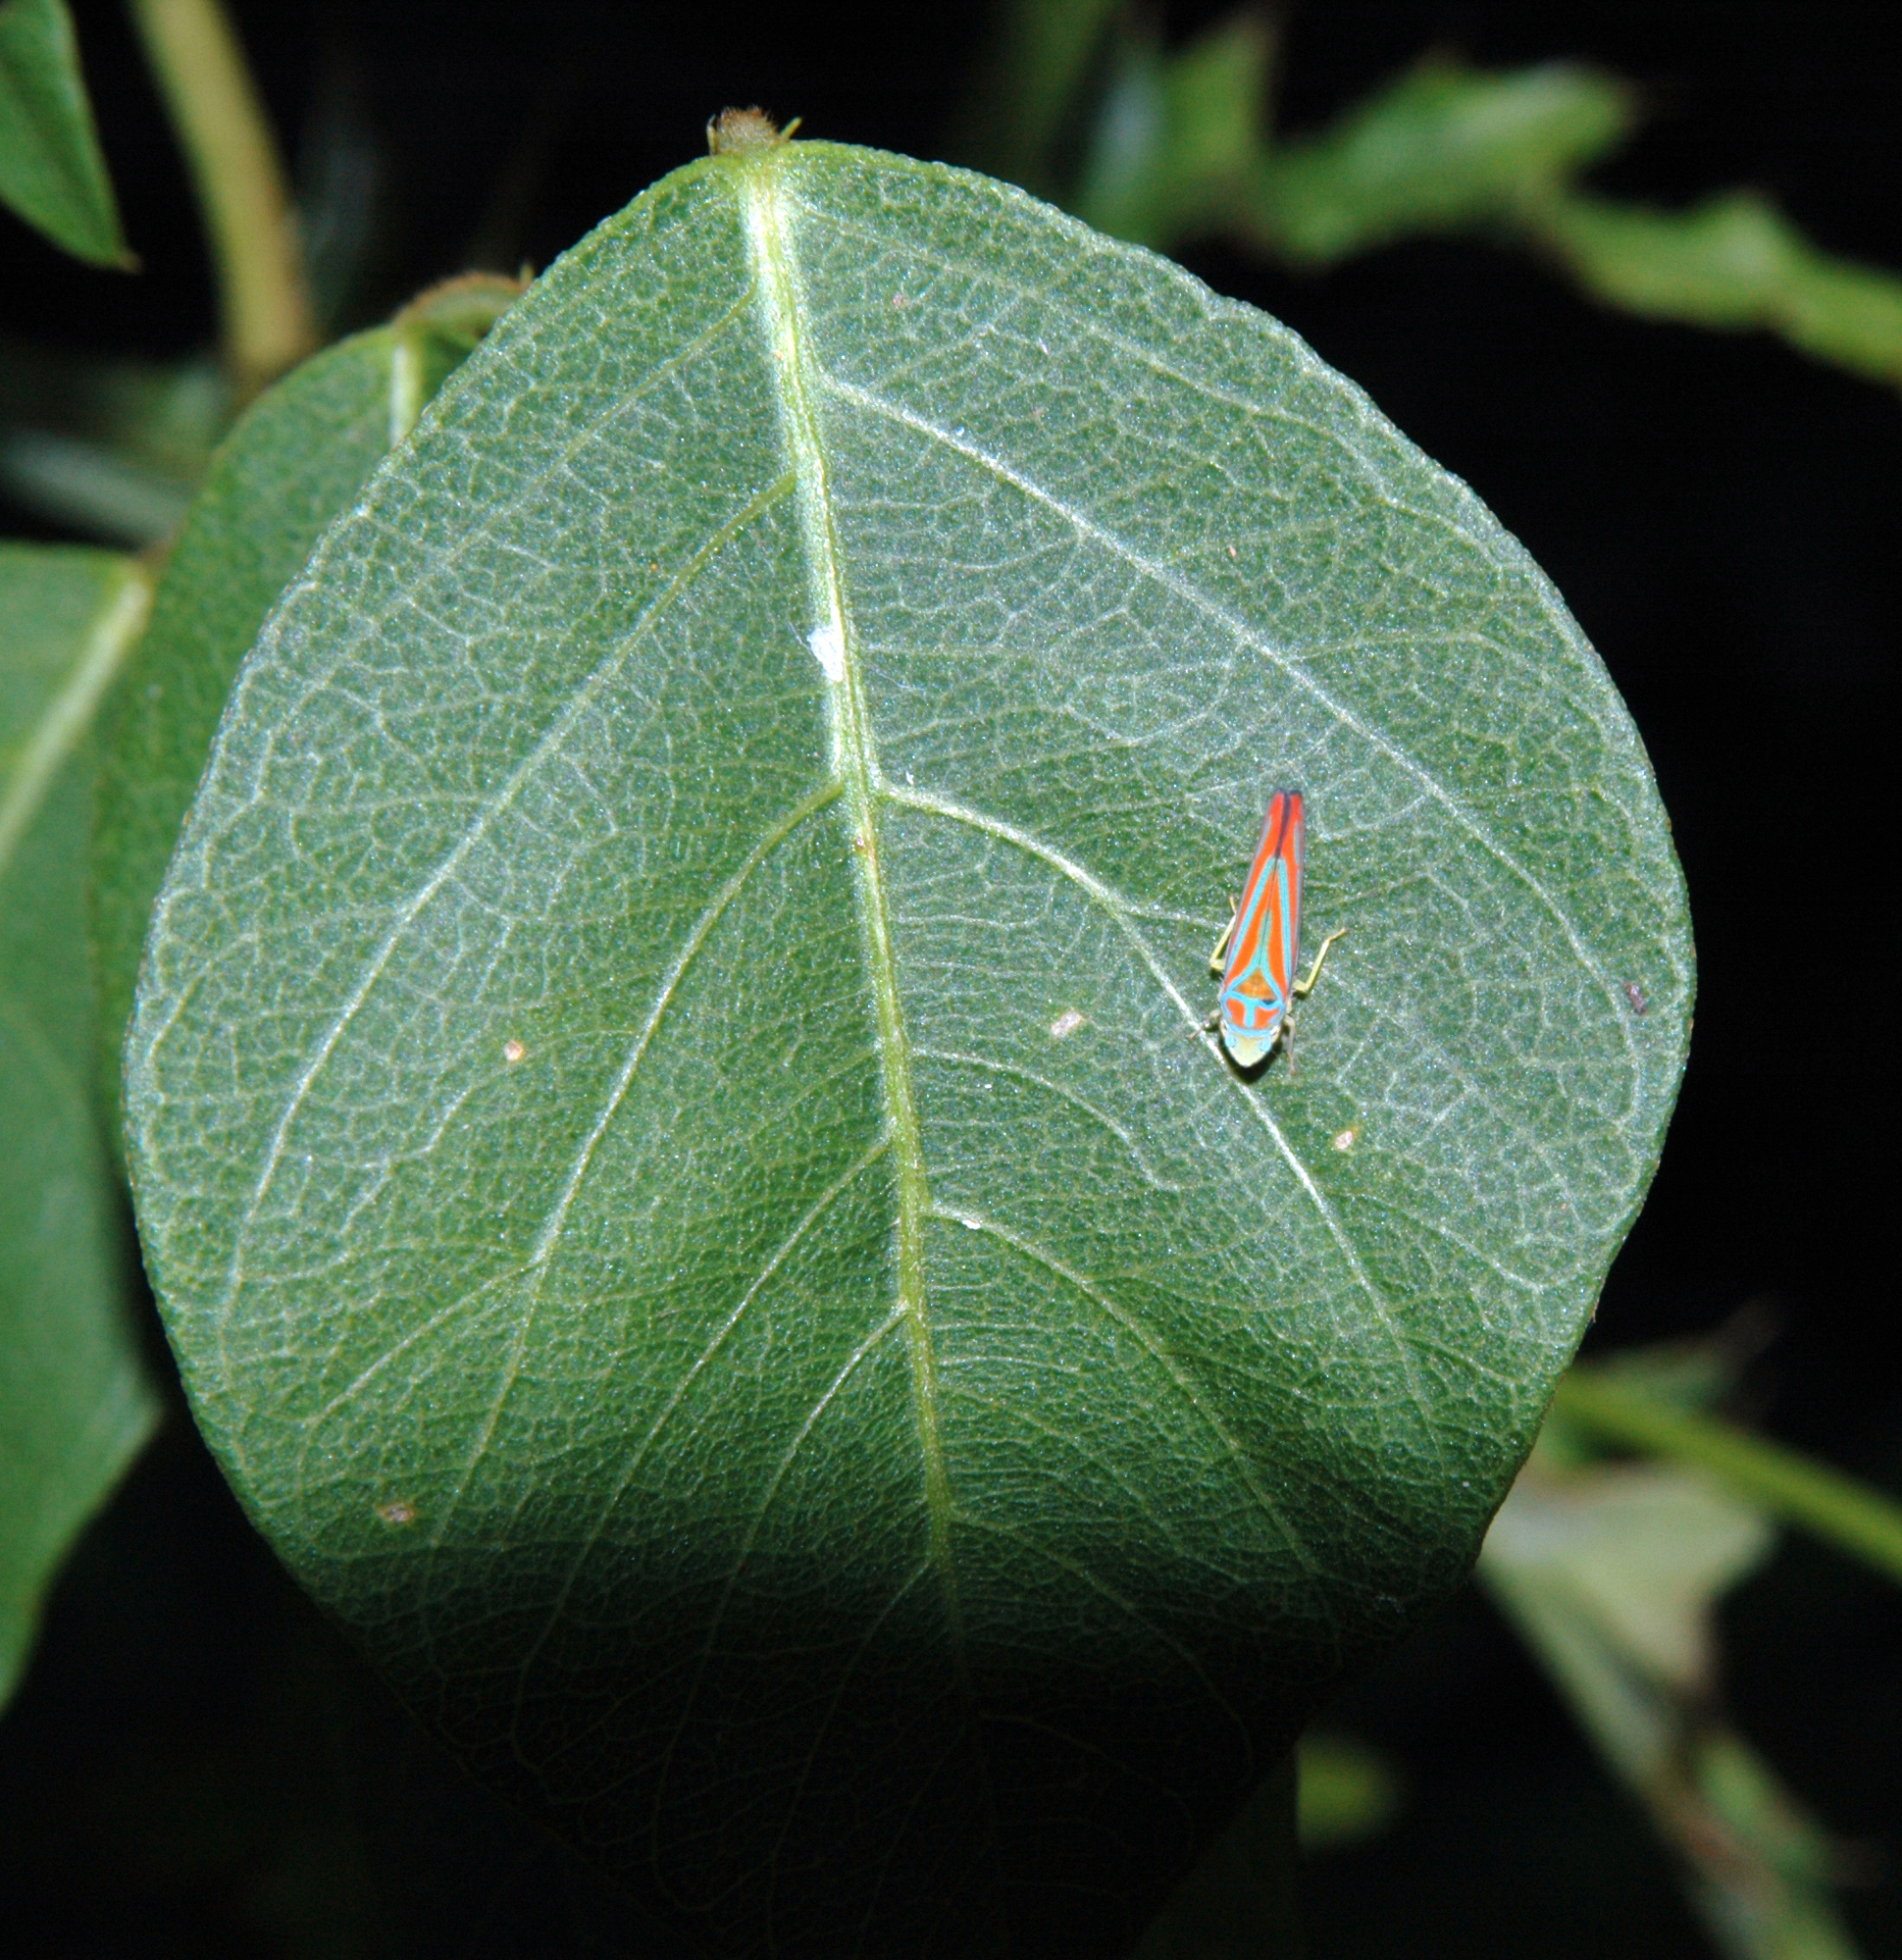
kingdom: Animalia
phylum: Arthropoda
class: Insecta
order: Hemiptera
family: Cicadellidae
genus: Graphocephala
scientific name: Graphocephala coccinea
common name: Candy-striped leafhopper
